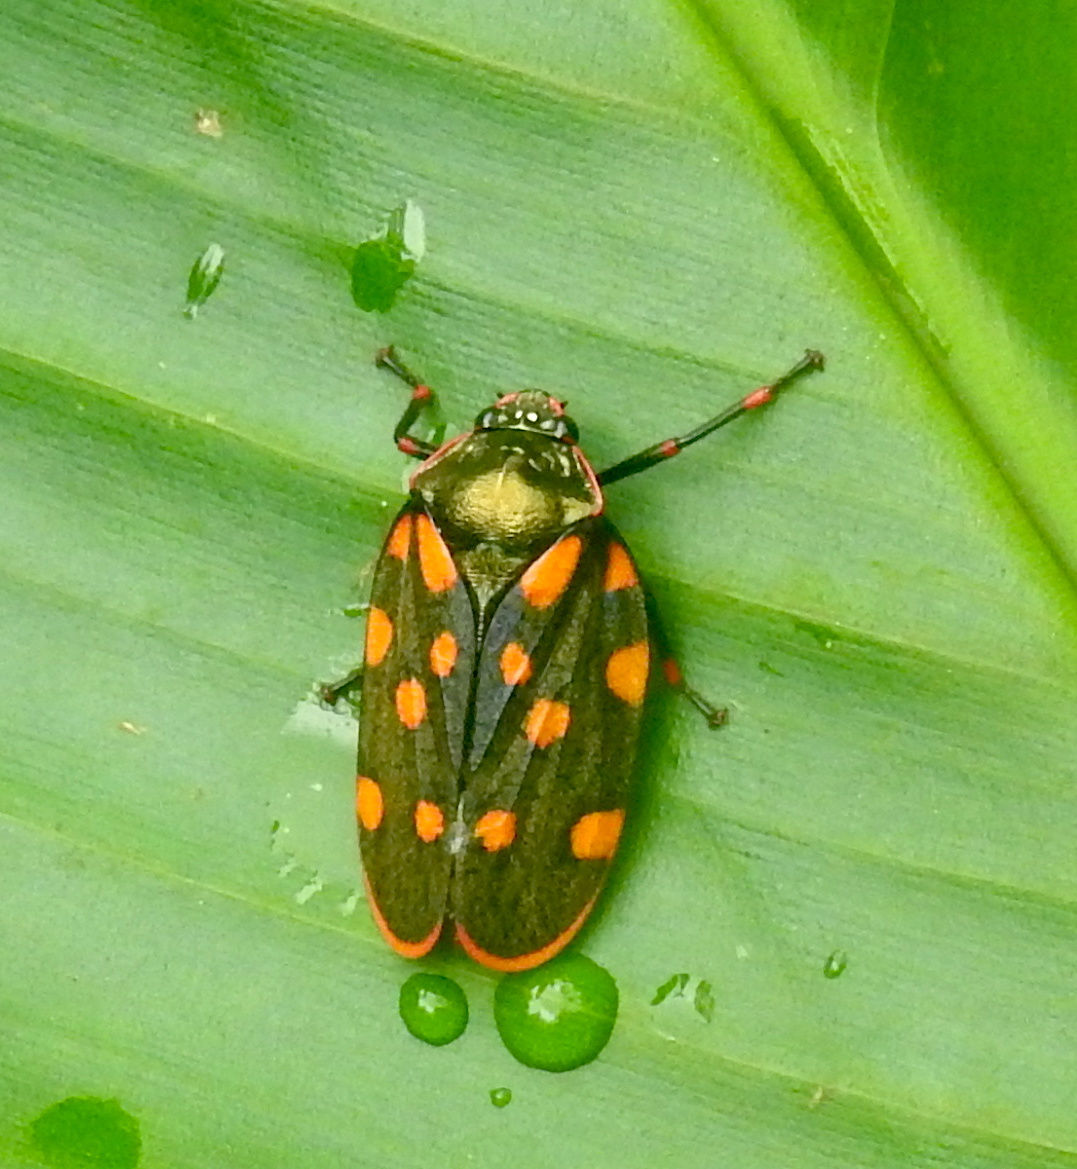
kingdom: Animalia
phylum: Arthropoda
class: Insecta
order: Hemiptera
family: Cercopidae
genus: Mahanarva
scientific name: Mahanarva costaricensis
